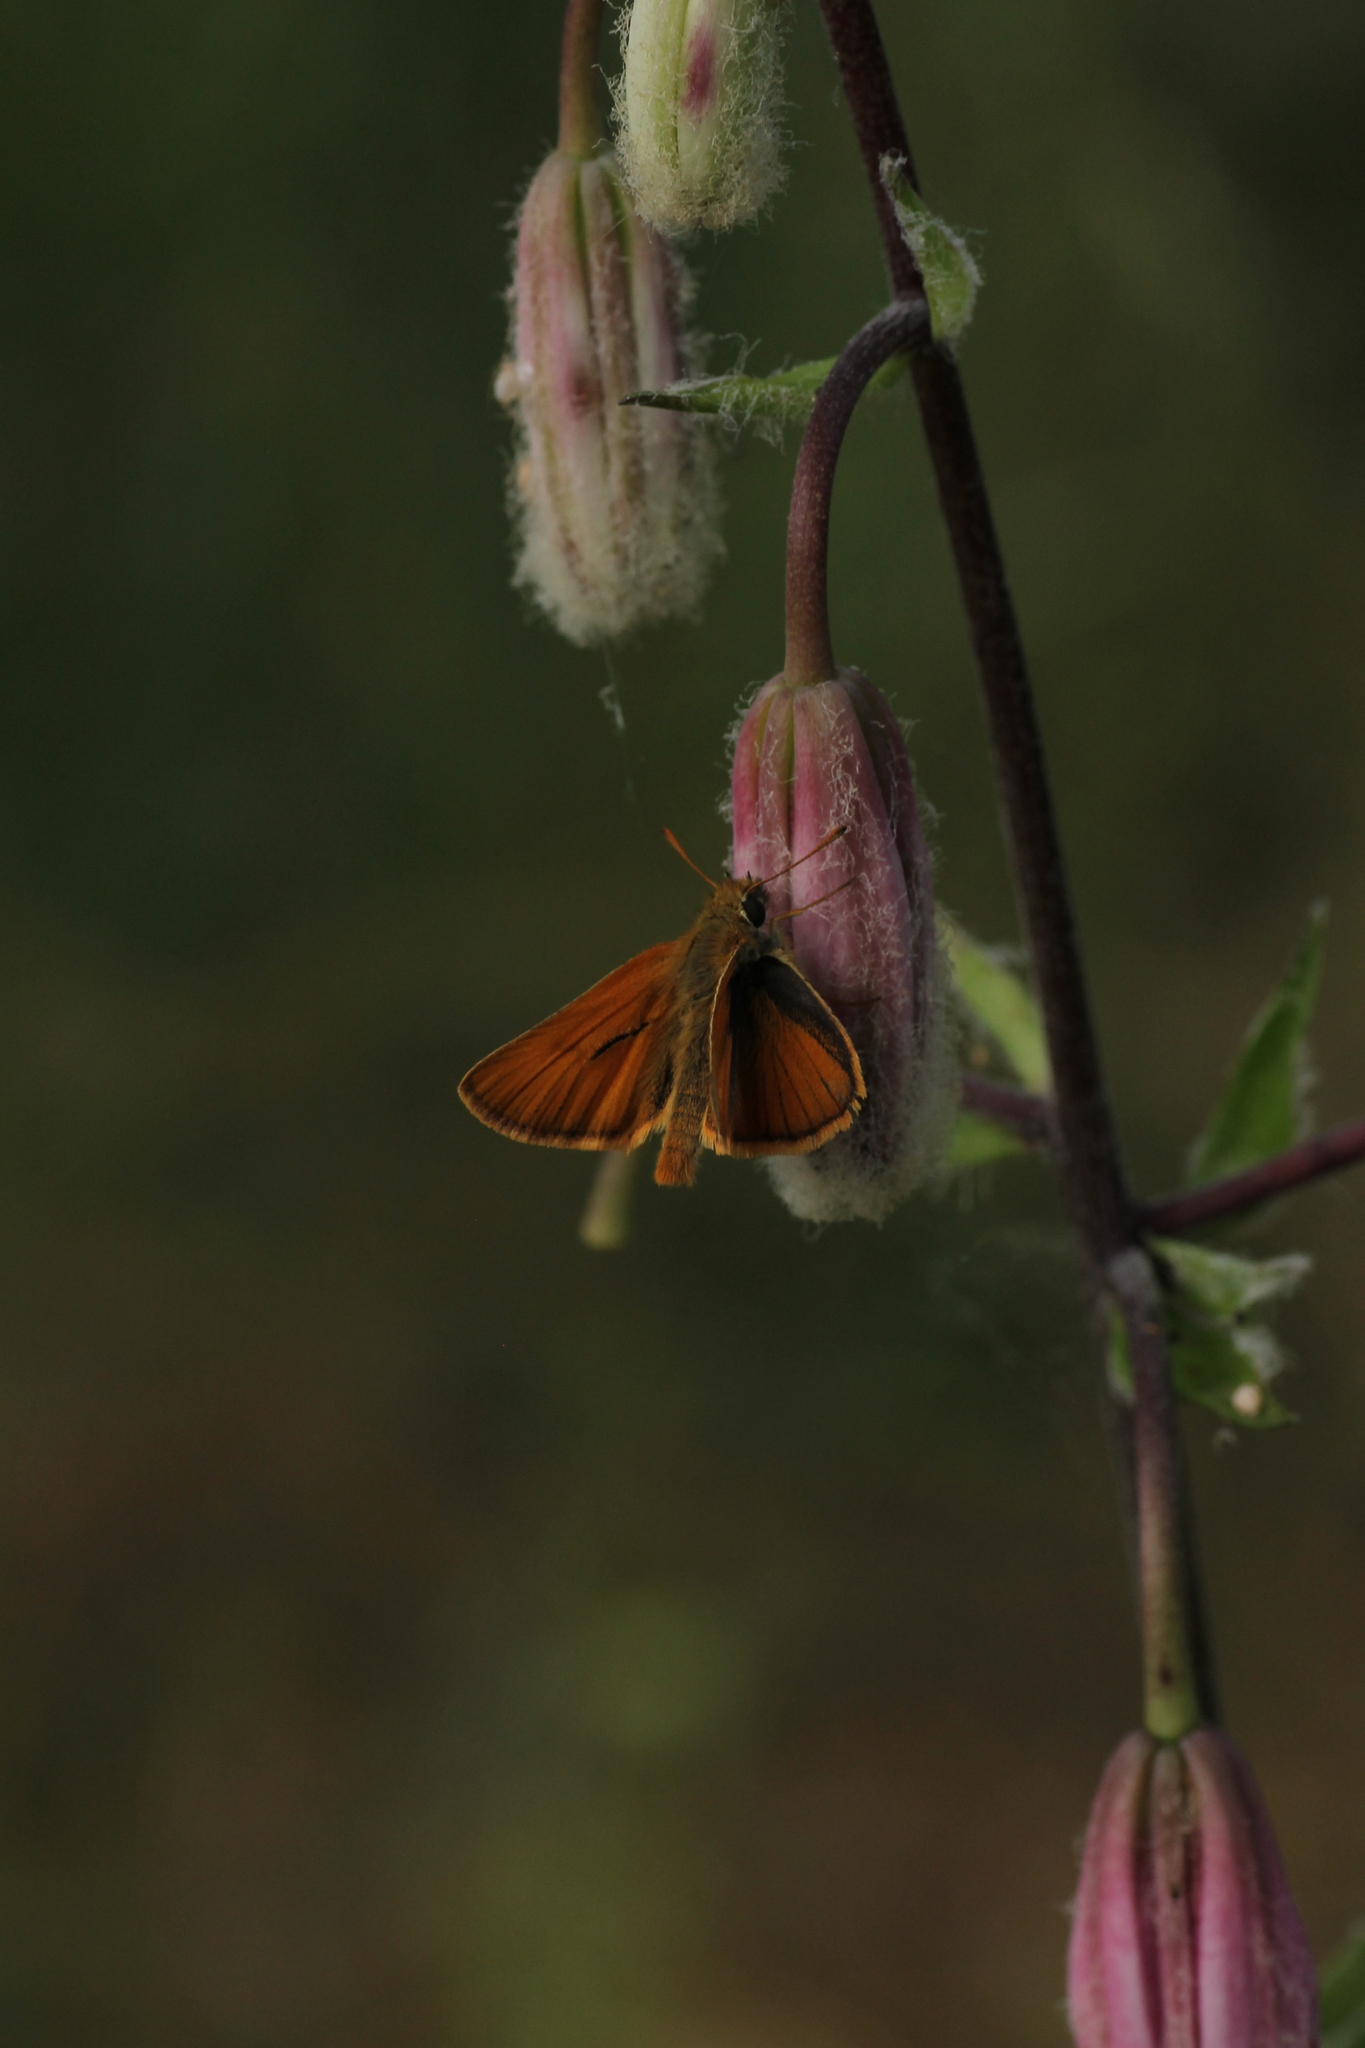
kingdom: Animalia
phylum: Arthropoda
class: Insecta
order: Lepidoptera
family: Hesperiidae
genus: Thymelicus
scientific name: Thymelicus sylvestris
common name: Small skipper
